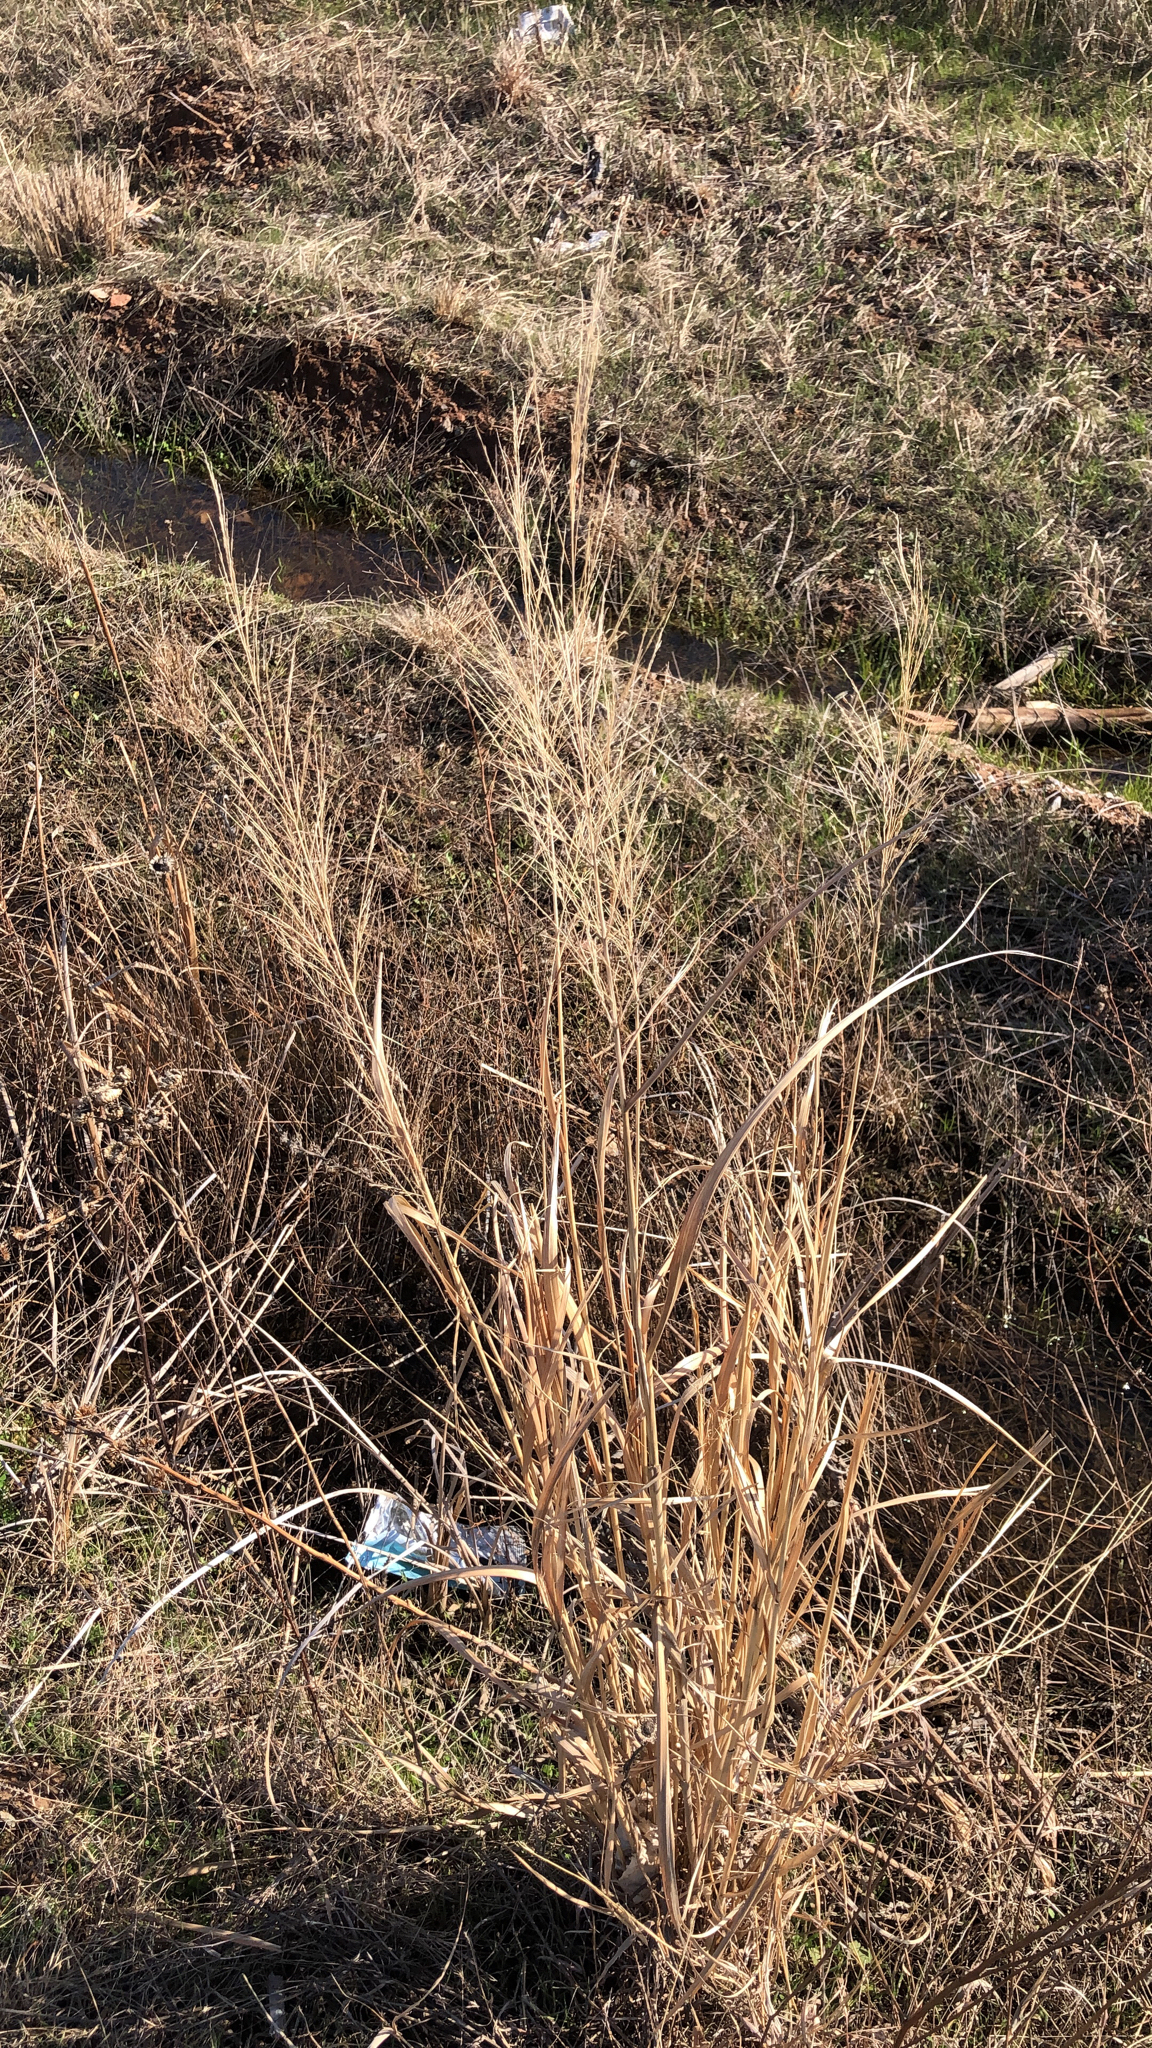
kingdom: Plantae
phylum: Tracheophyta
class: Liliopsida
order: Poales
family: Poaceae
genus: Panicum
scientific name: Panicum virgatum
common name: Switchgrass
